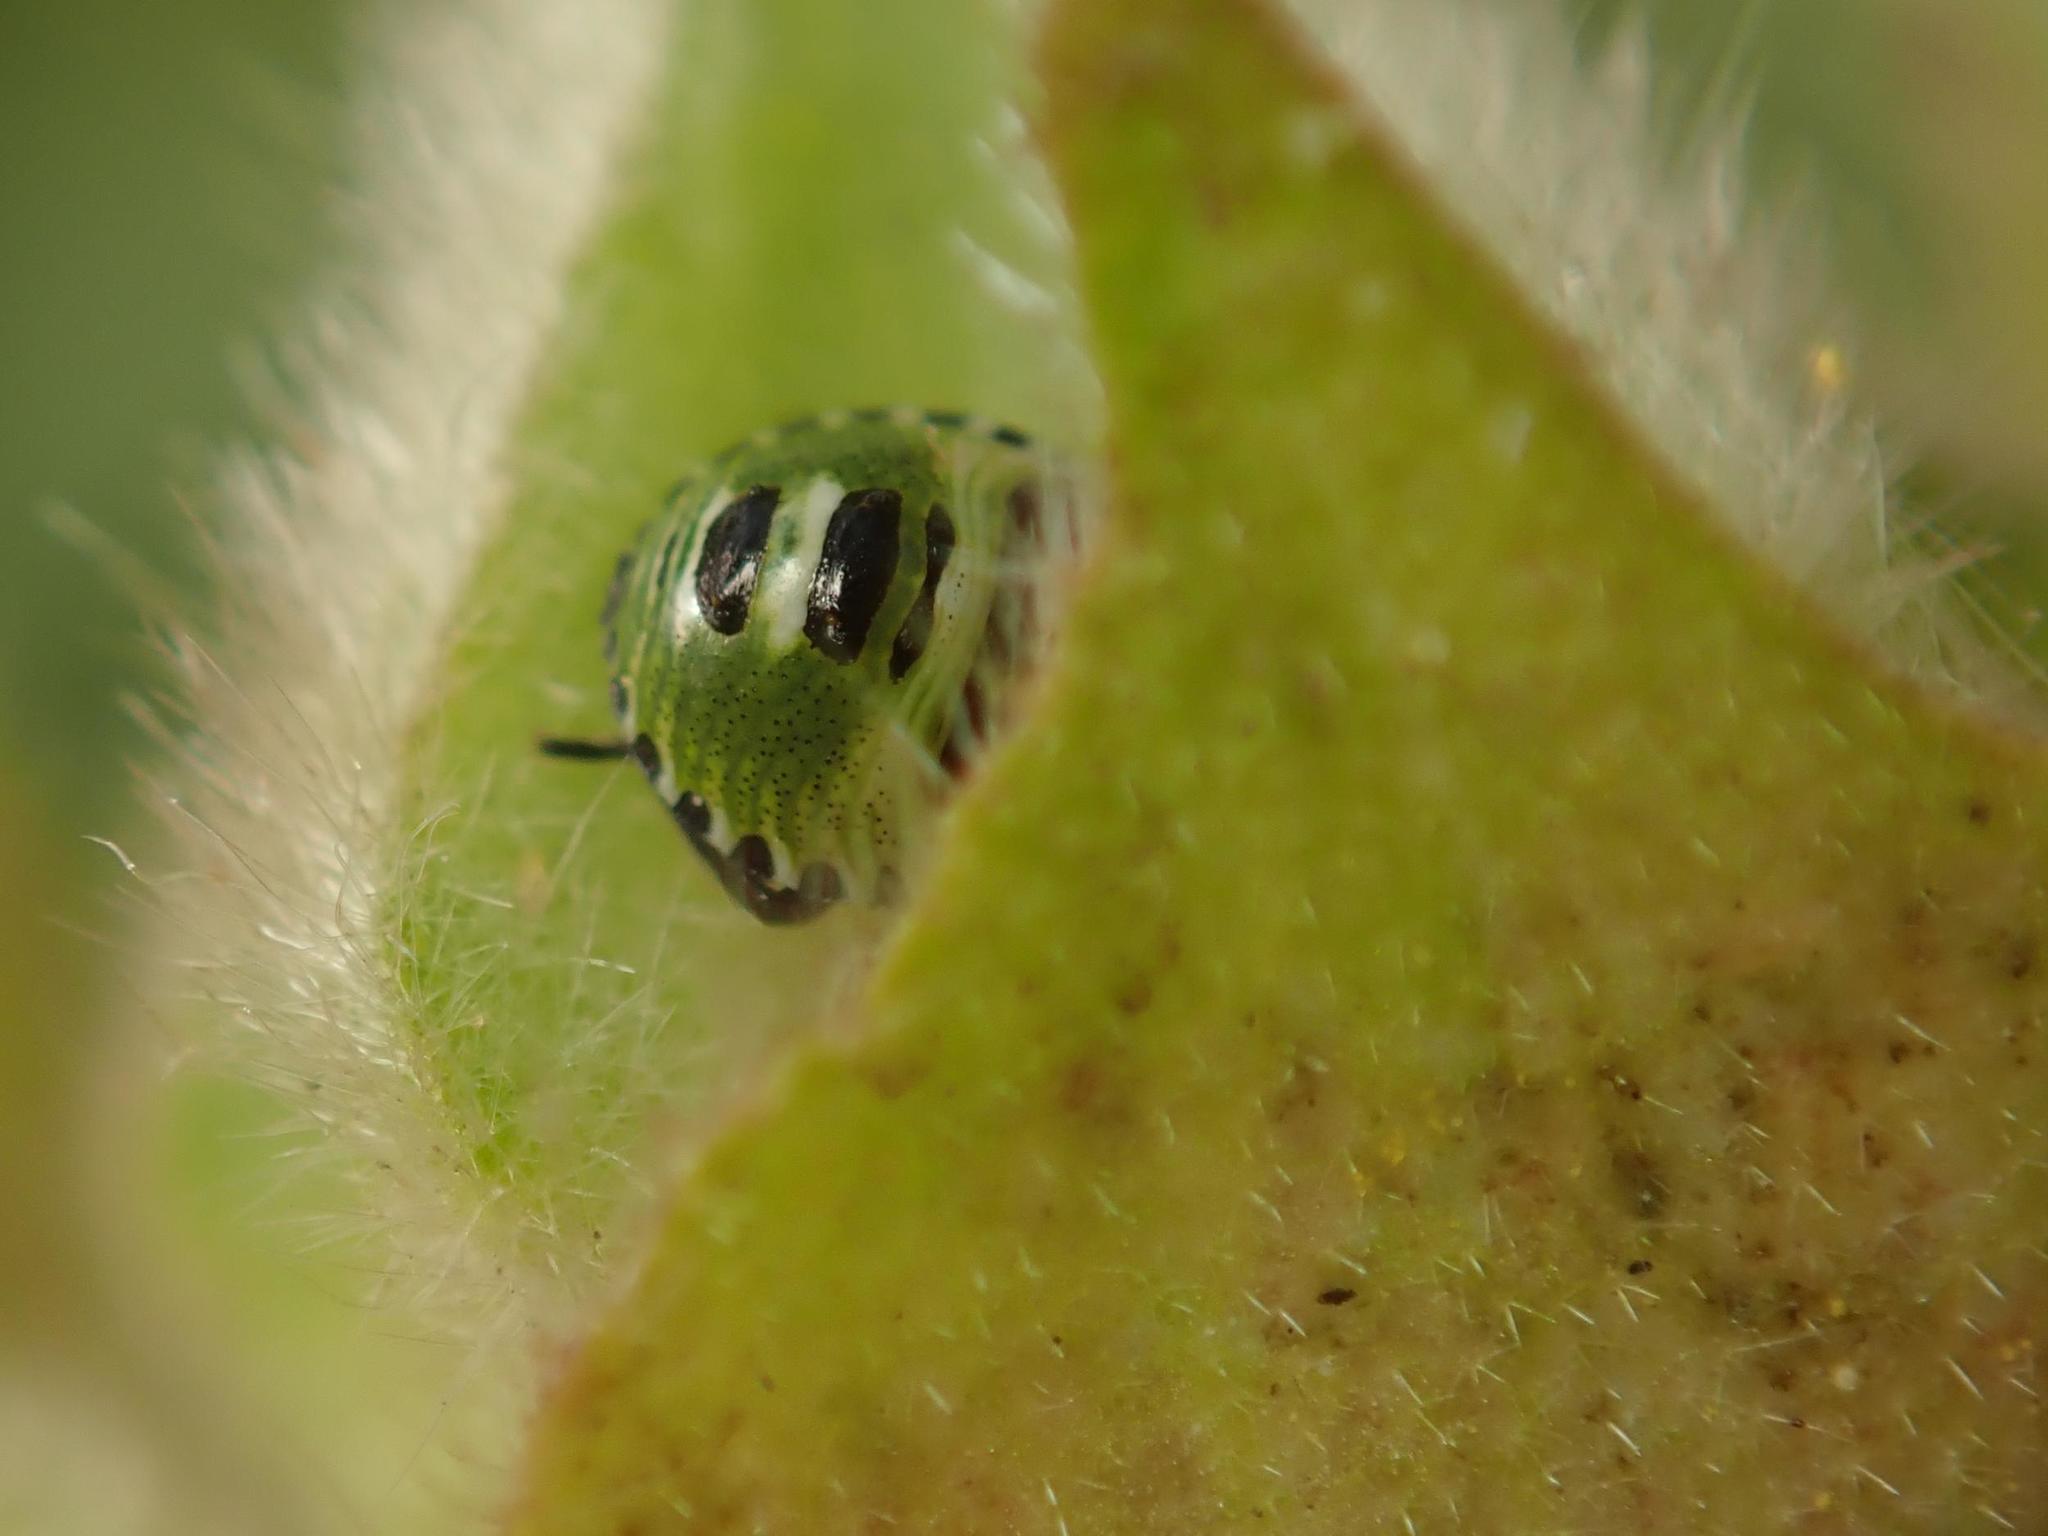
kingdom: Animalia
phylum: Arthropoda
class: Insecta
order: Hemiptera
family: Pentatomidae
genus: Palomena
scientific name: Palomena prasina
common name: Green shieldbug
